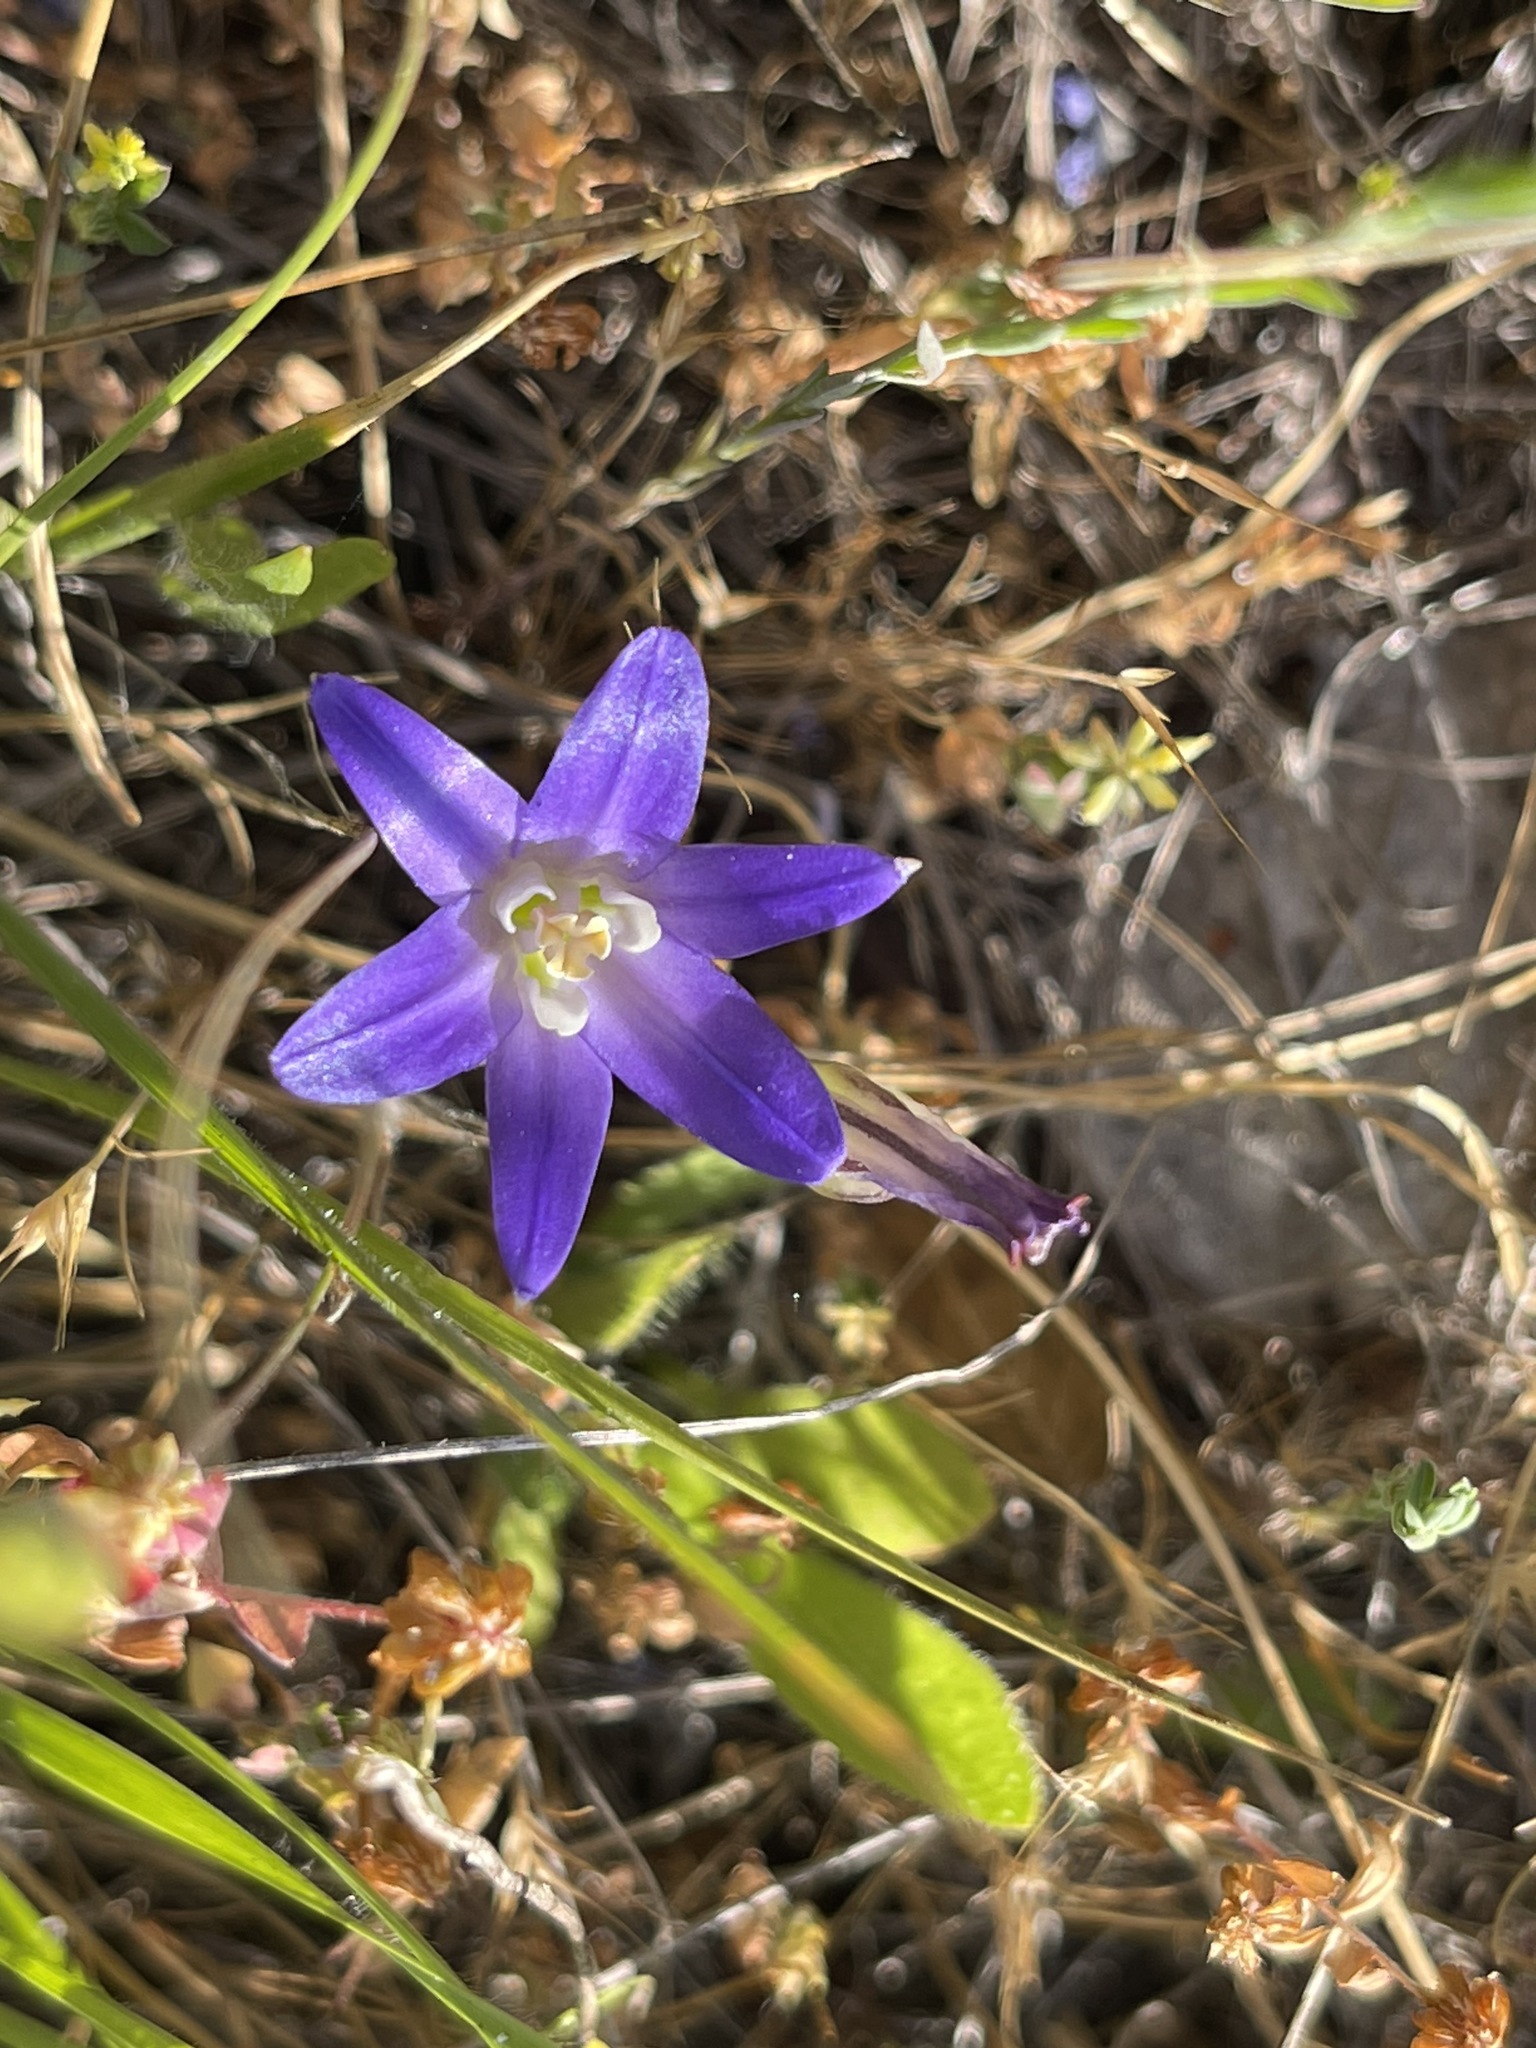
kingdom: Plantae
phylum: Tracheophyta
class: Liliopsida
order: Asparagales
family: Asparagaceae
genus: Brodiaea
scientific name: Brodiaea terrestris
